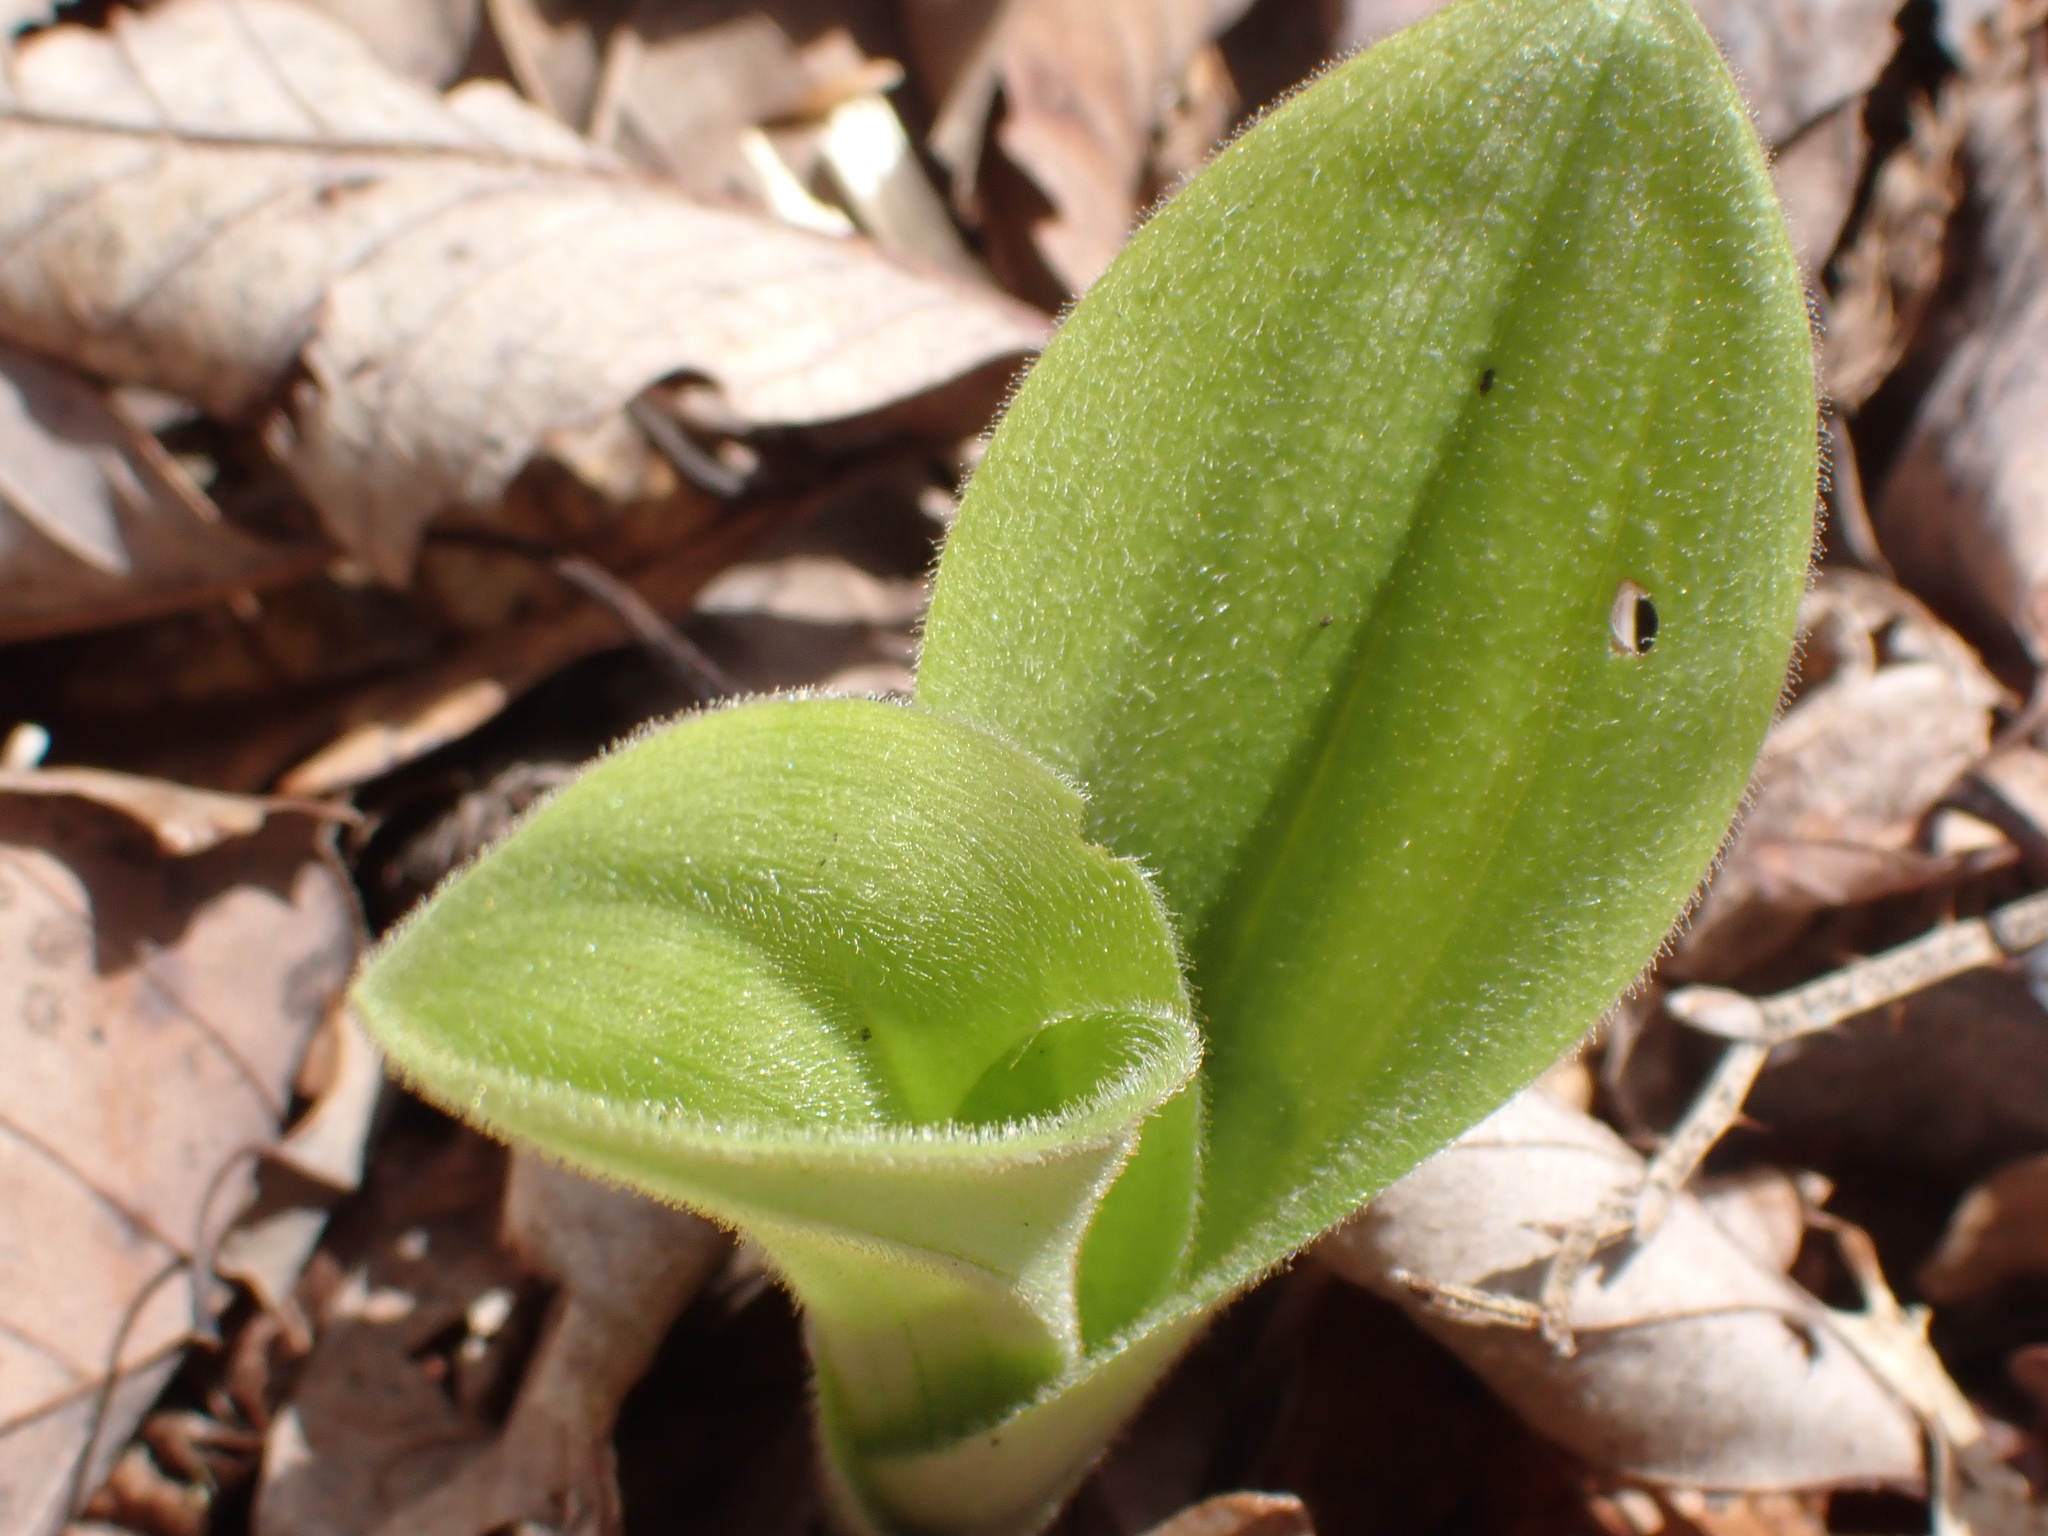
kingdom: Plantae
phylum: Tracheophyta
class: Liliopsida
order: Asparagales
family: Orchidaceae
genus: Cypripedium
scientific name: Cypripedium acaule
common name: Pink lady's-slipper
